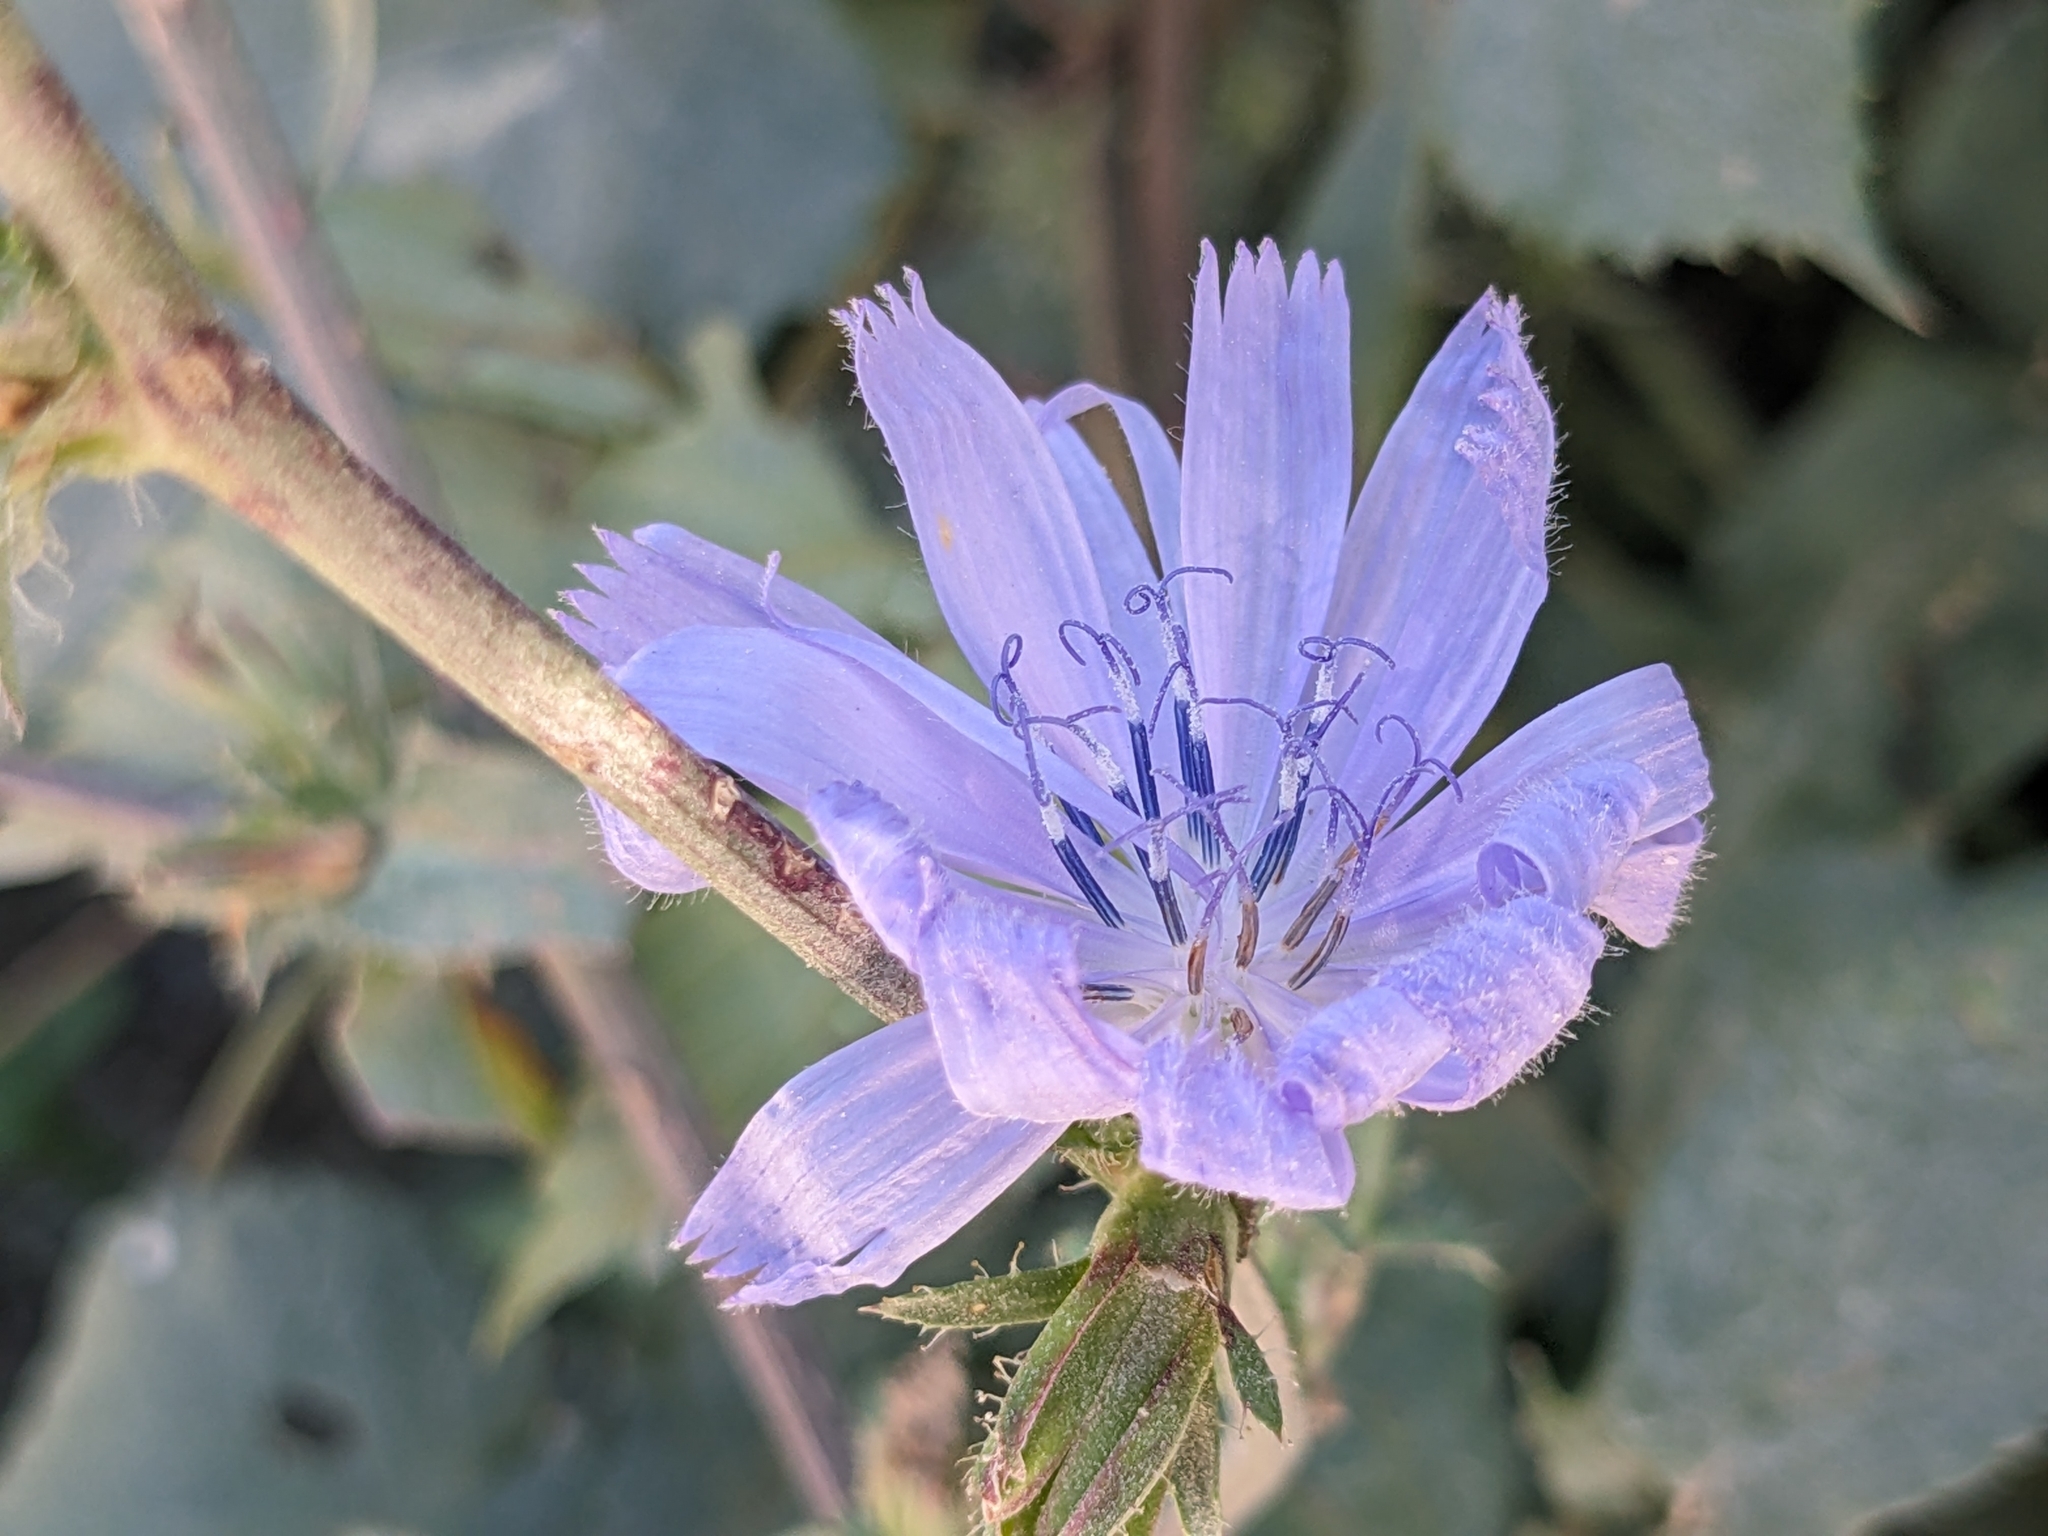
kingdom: Plantae
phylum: Tracheophyta
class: Magnoliopsida
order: Asterales
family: Asteraceae
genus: Cichorium
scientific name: Cichorium intybus
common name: Chicory
